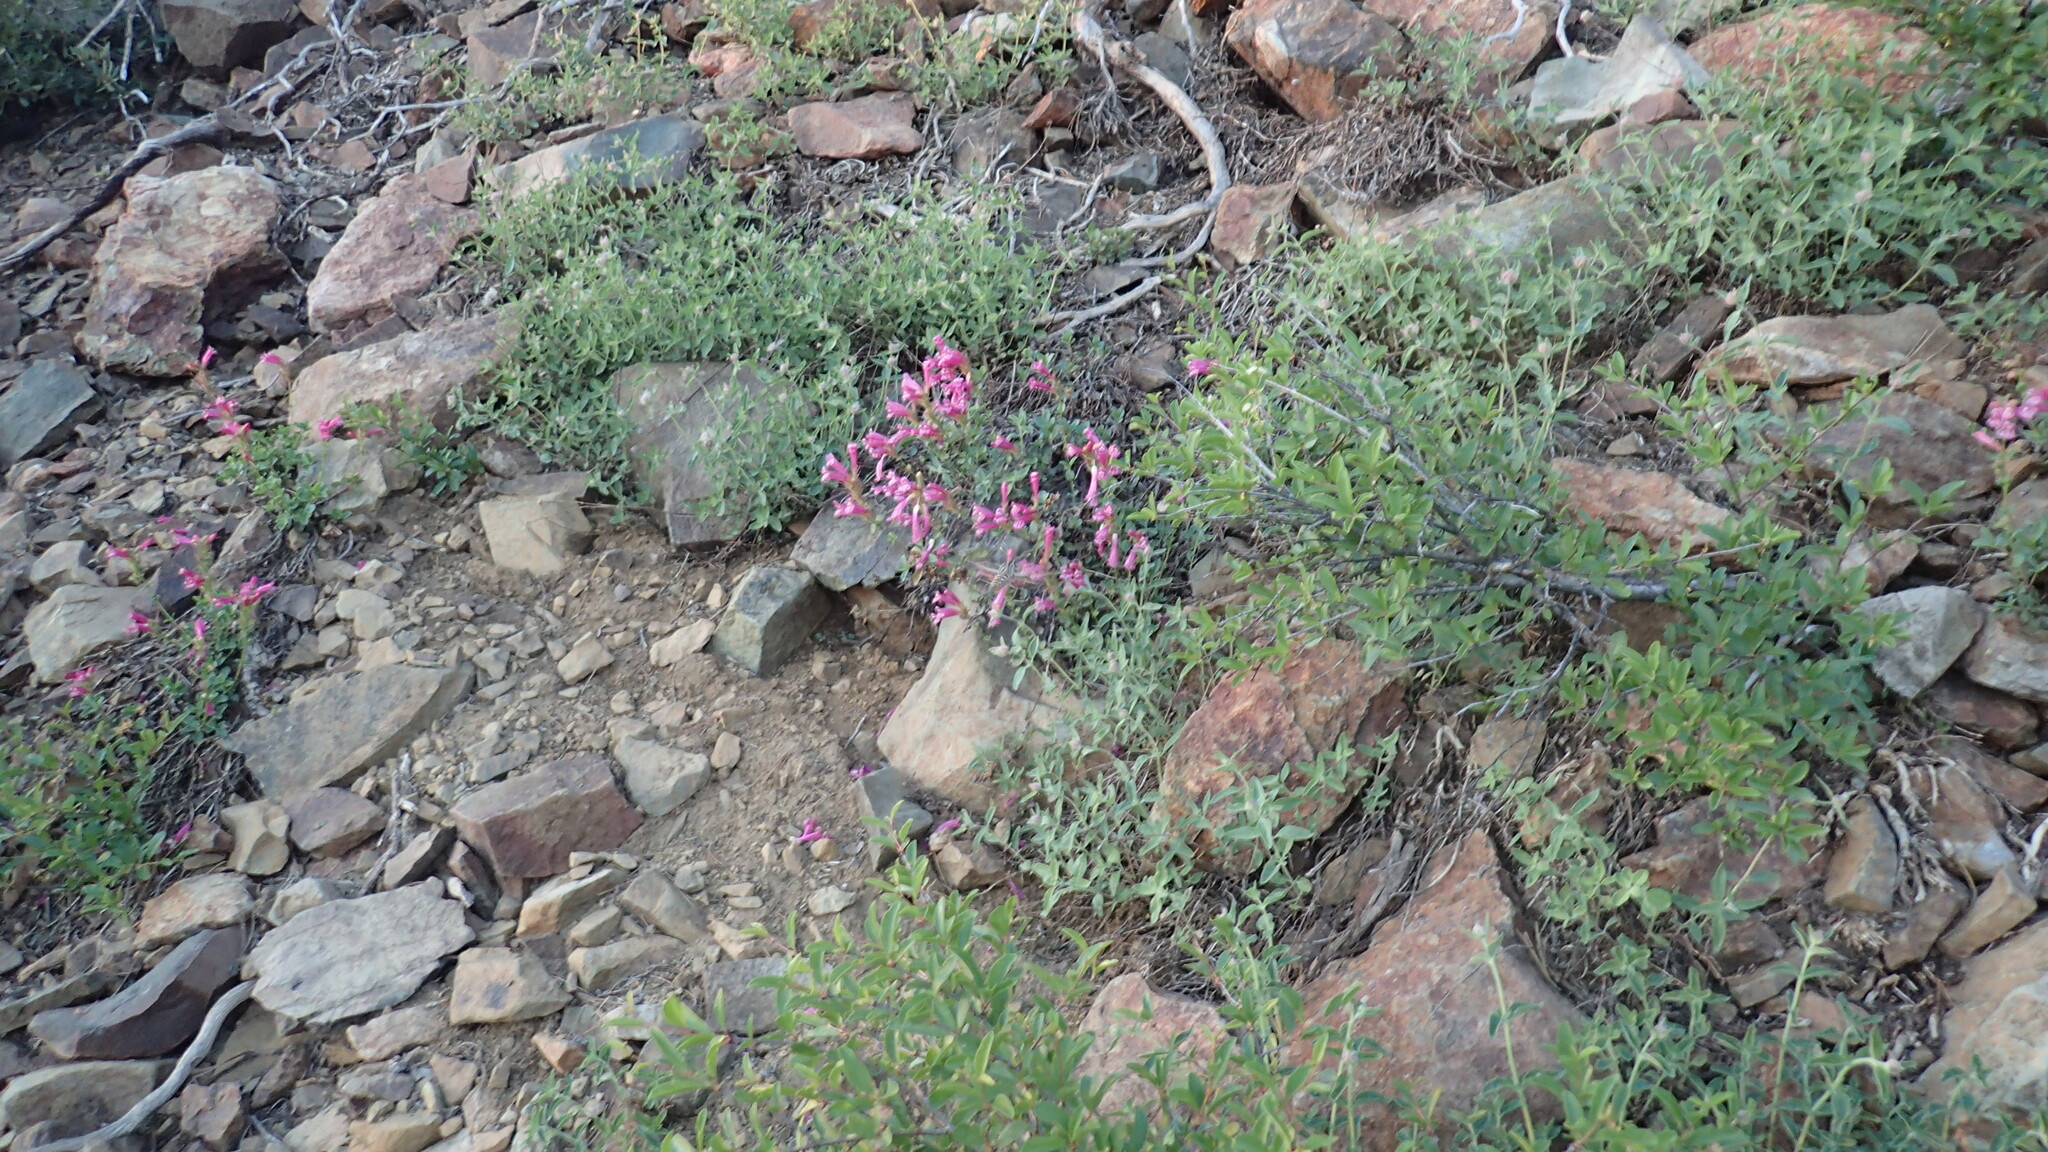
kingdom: Animalia
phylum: Arthropoda
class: Insecta
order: Lepidoptera
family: Sphingidae
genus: Hyles
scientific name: Hyles lineata
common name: White-lined sphinx
